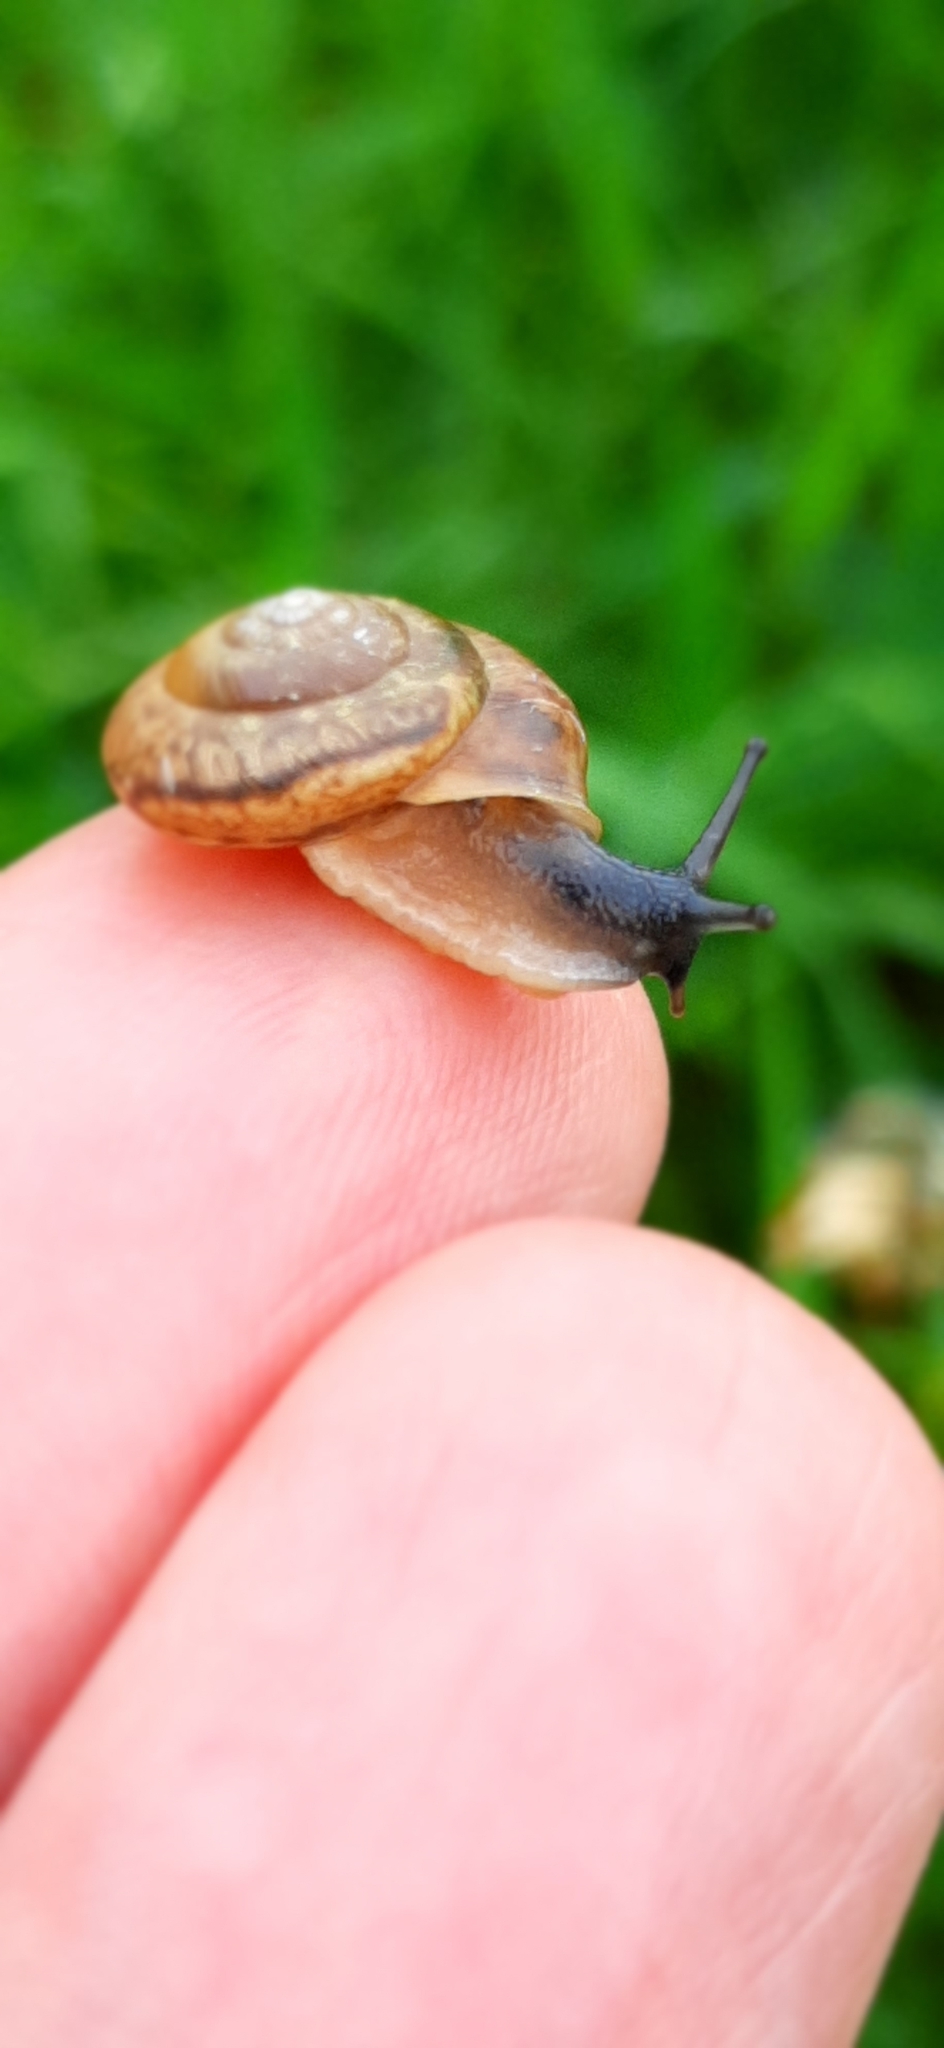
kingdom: Animalia
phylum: Mollusca
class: Gastropoda
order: Stylommatophora
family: Hygromiidae
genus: Urticicola
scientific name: Urticicola umbrosus
